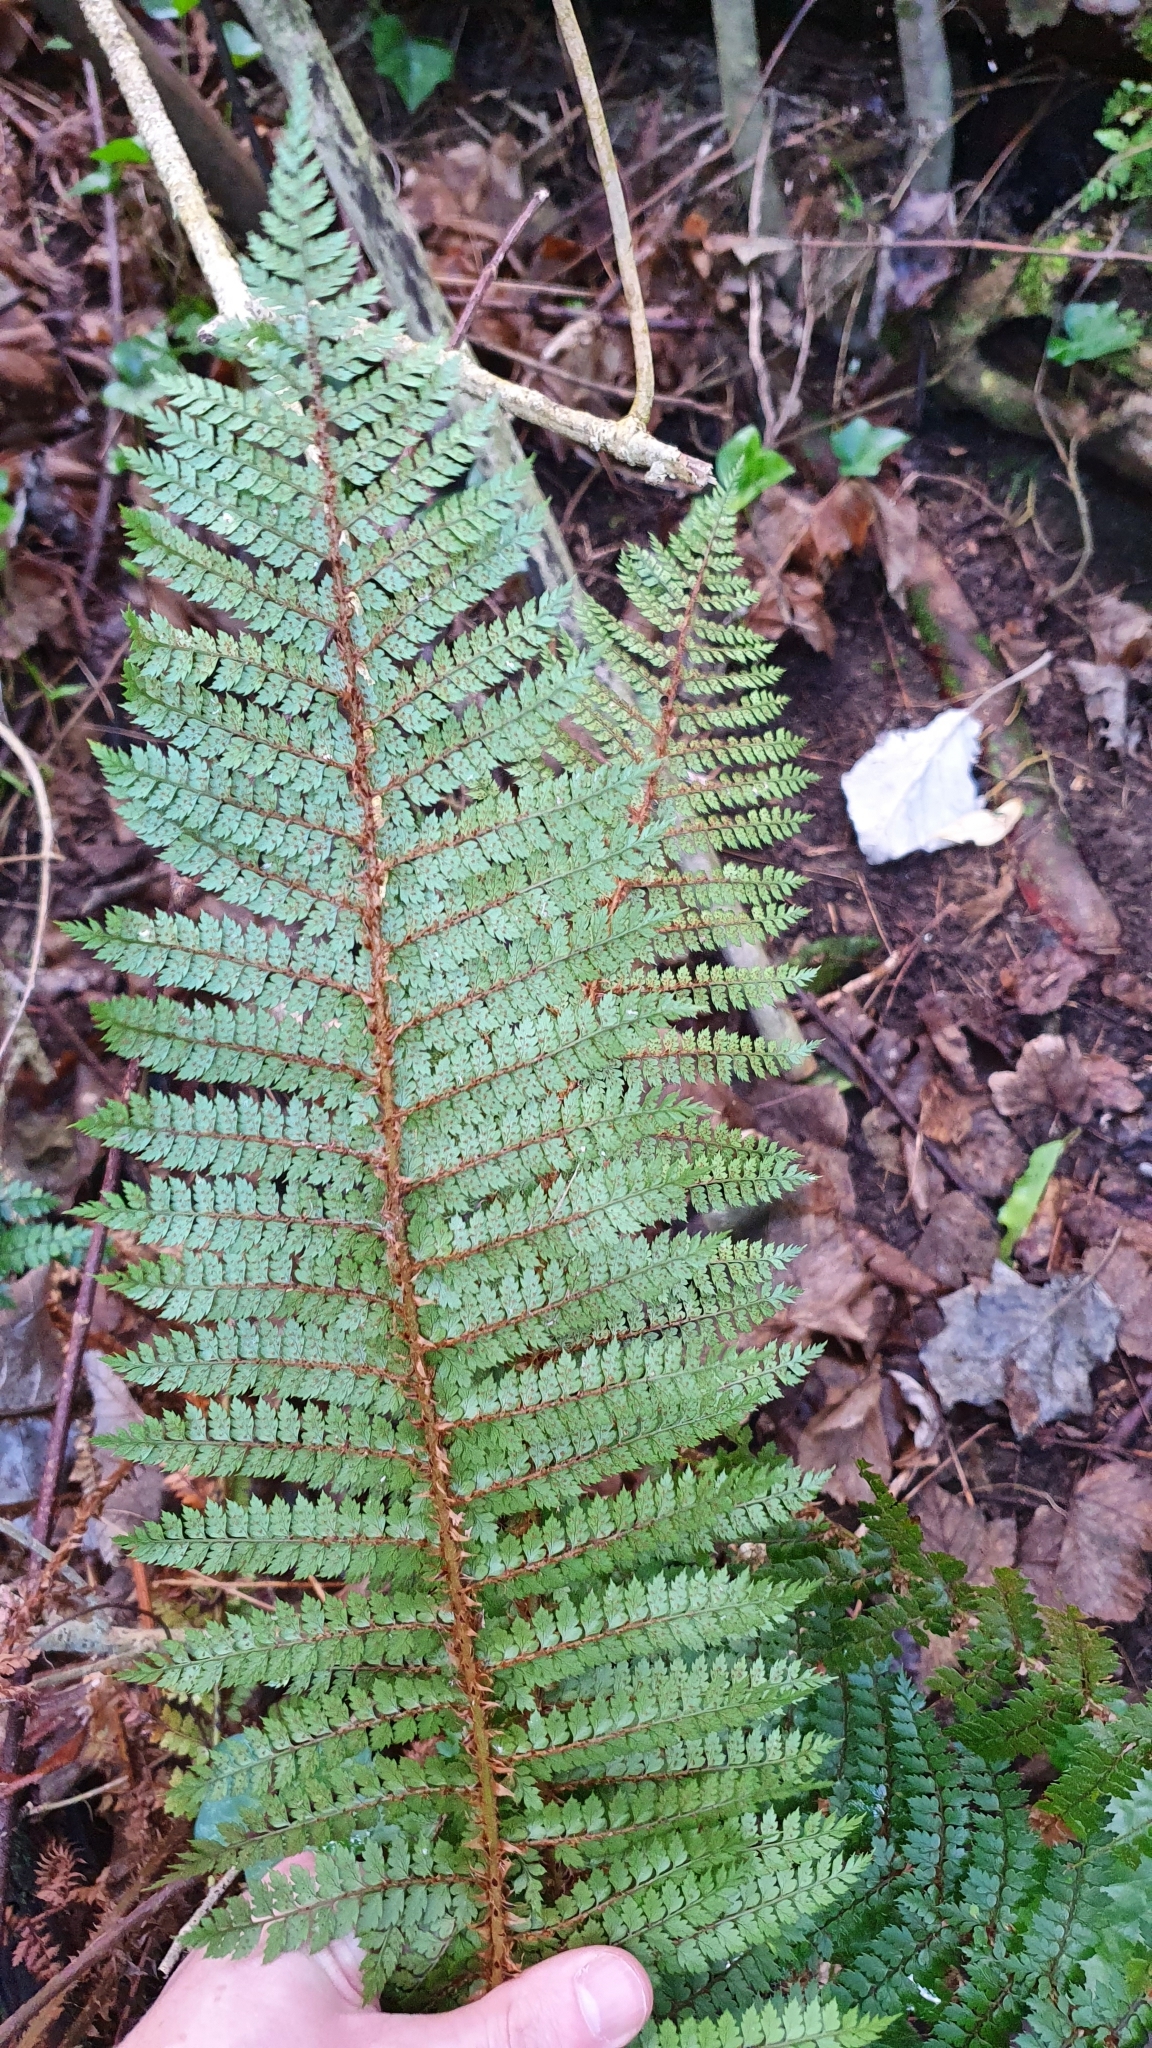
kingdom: Plantae
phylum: Tracheophyta
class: Polypodiopsida
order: Polypodiales
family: Dryopteridaceae
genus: Polystichum
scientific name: Polystichum vestitum
